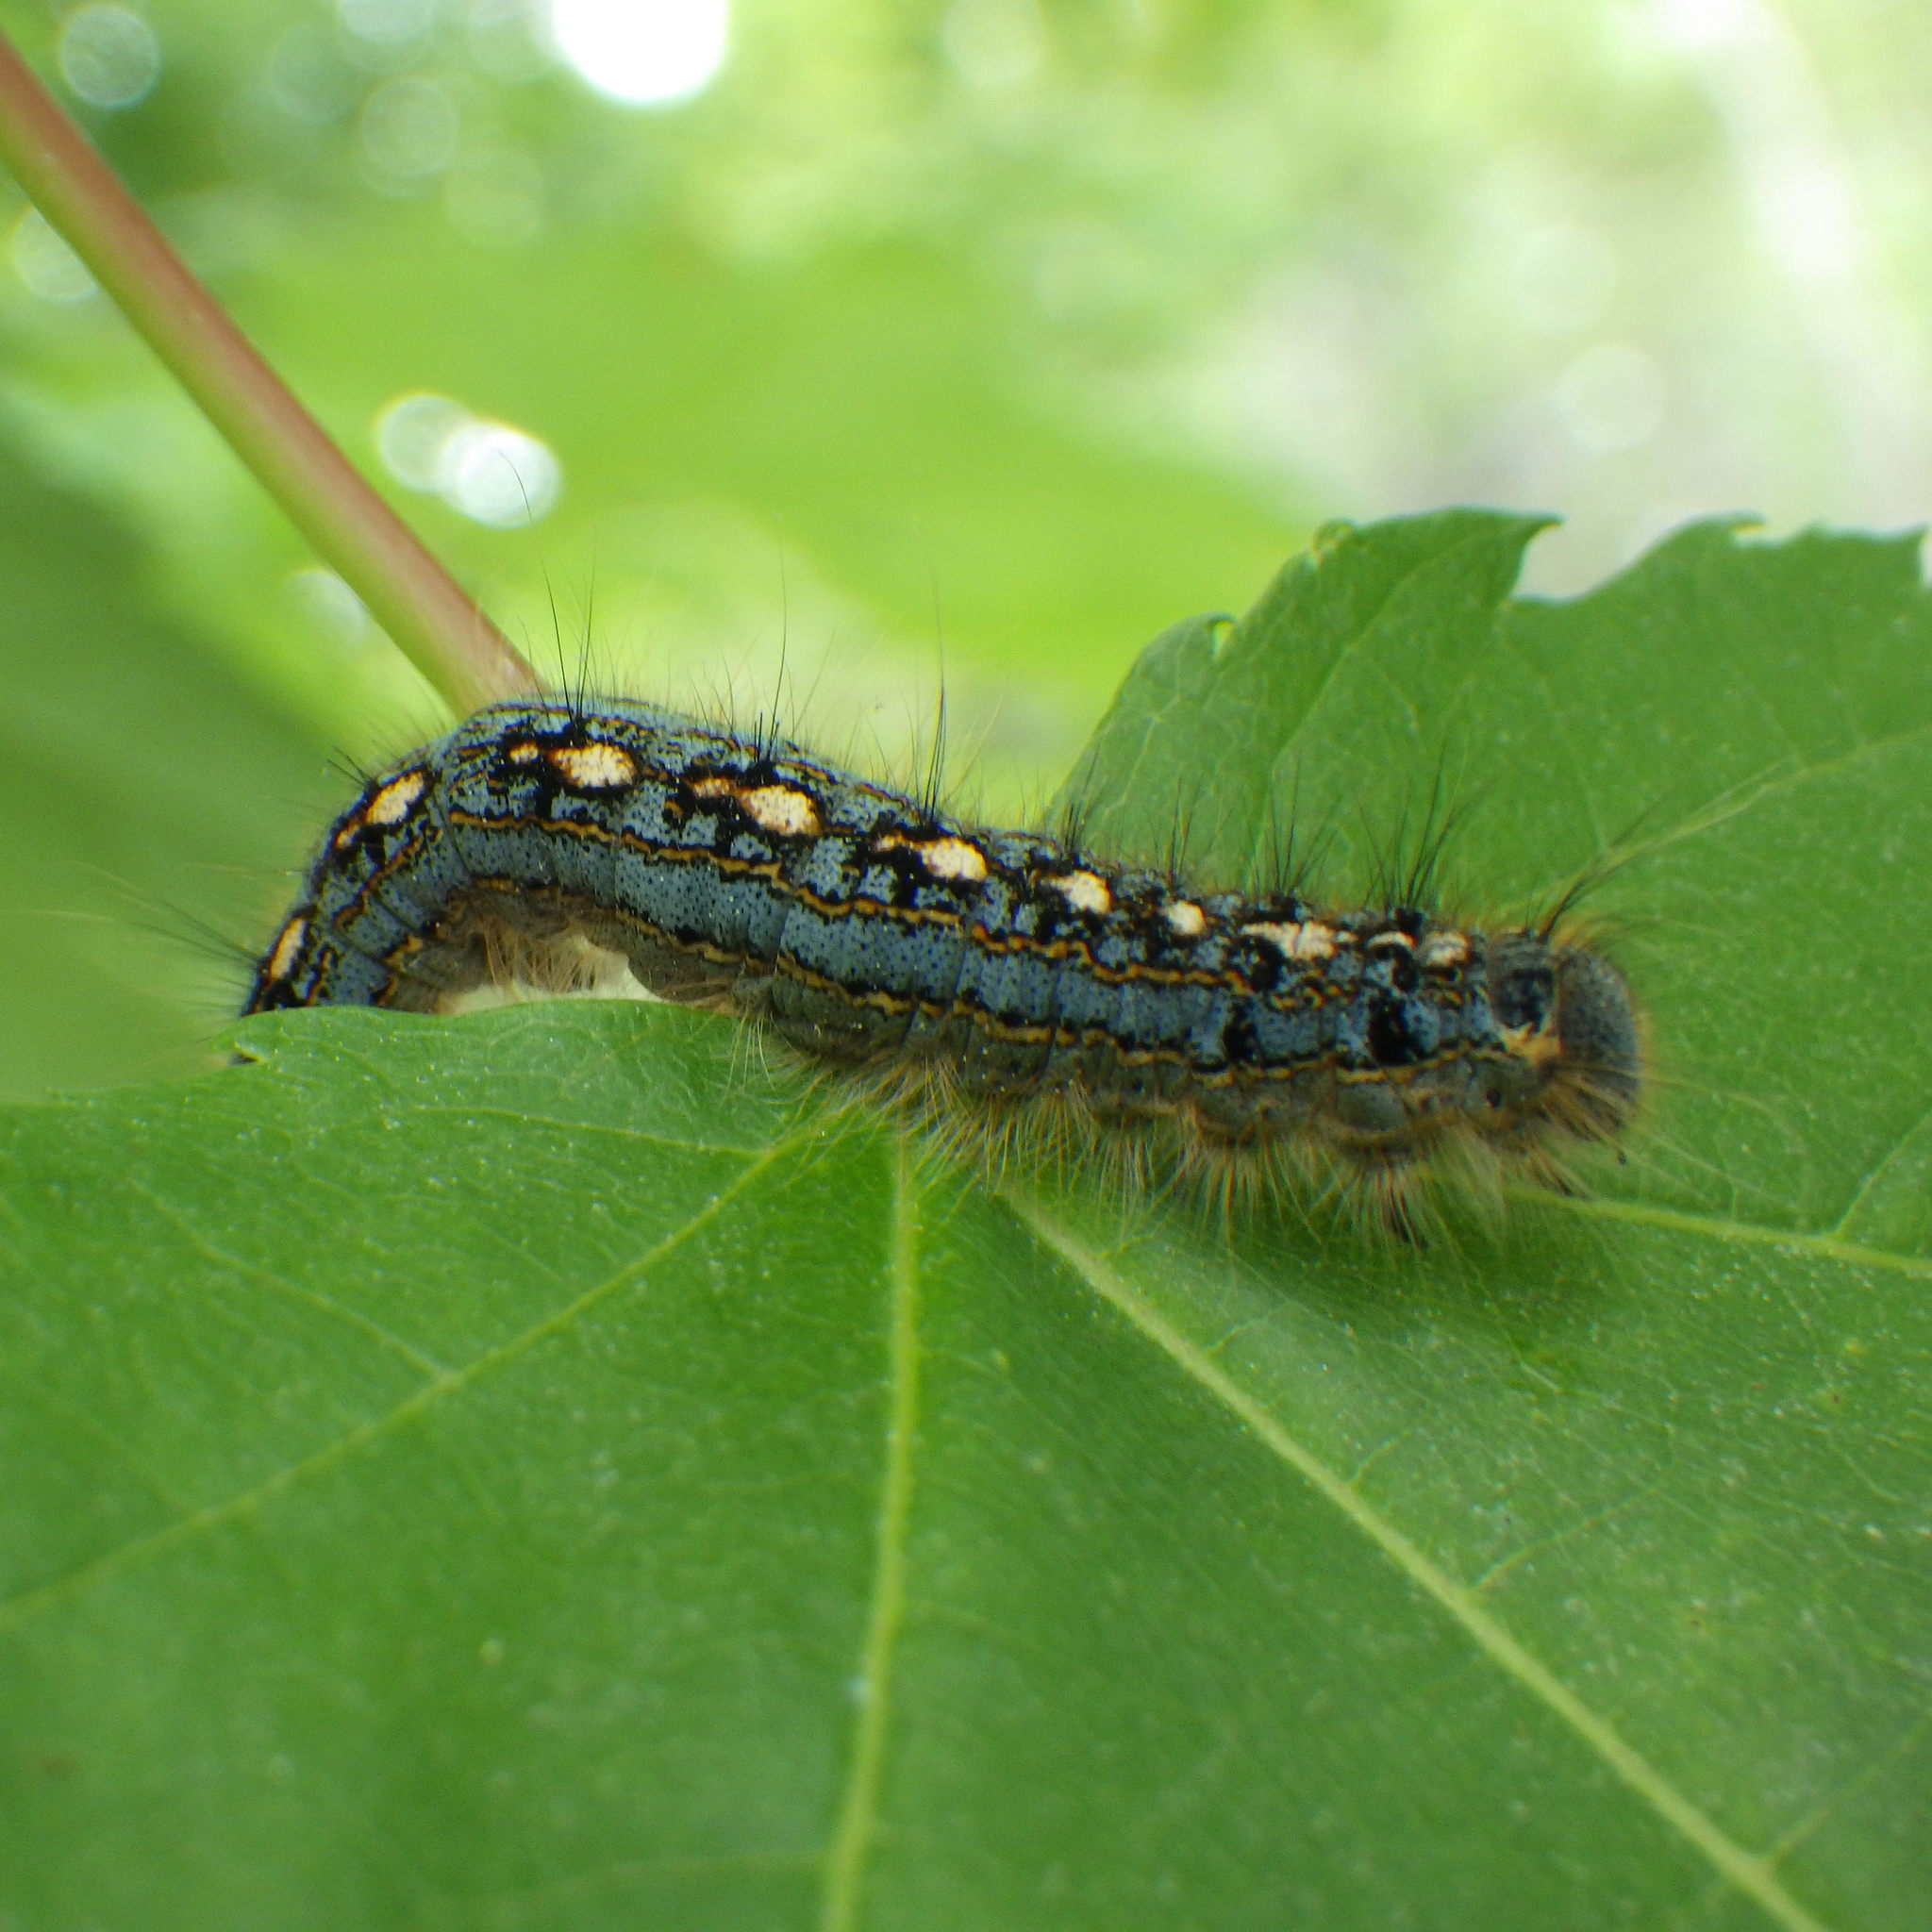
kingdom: Animalia
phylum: Arthropoda
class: Insecta
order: Lepidoptera
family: Lasiocampidae
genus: Malacosoma
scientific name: Malacosoma disstria
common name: Forest tent caterpillar
